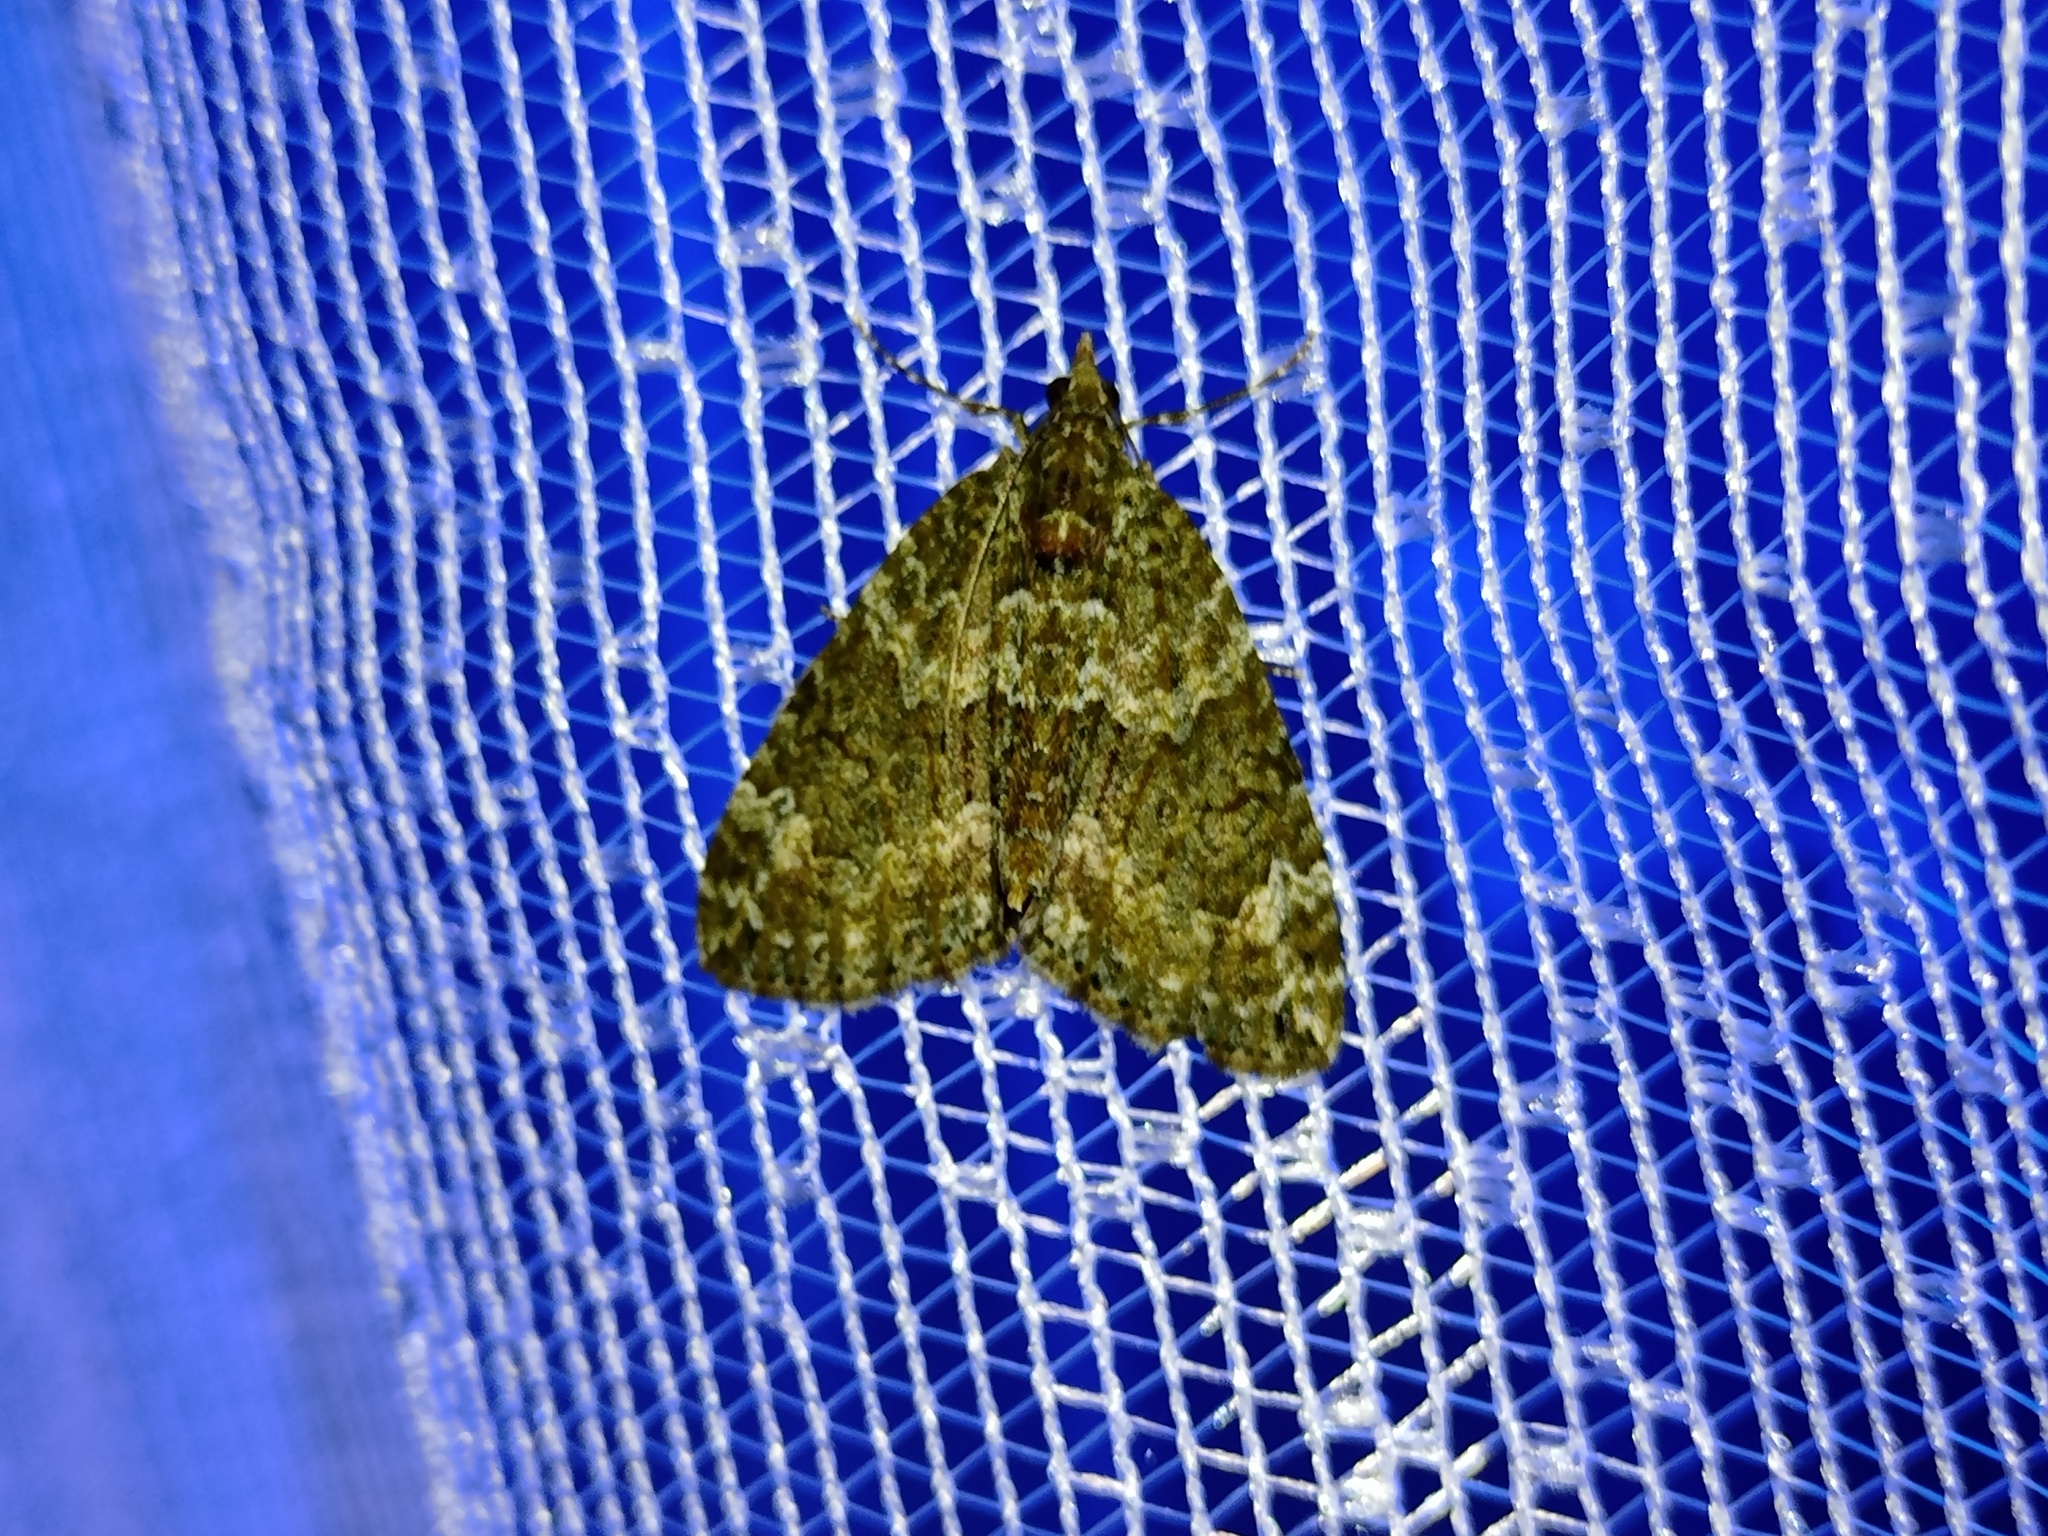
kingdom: Animalia
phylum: Arthropoda
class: Insecta
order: Lepidoptera
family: Geometridae
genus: Chloroclysta
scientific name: Chloroclysta siterata
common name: Red-green carpet
